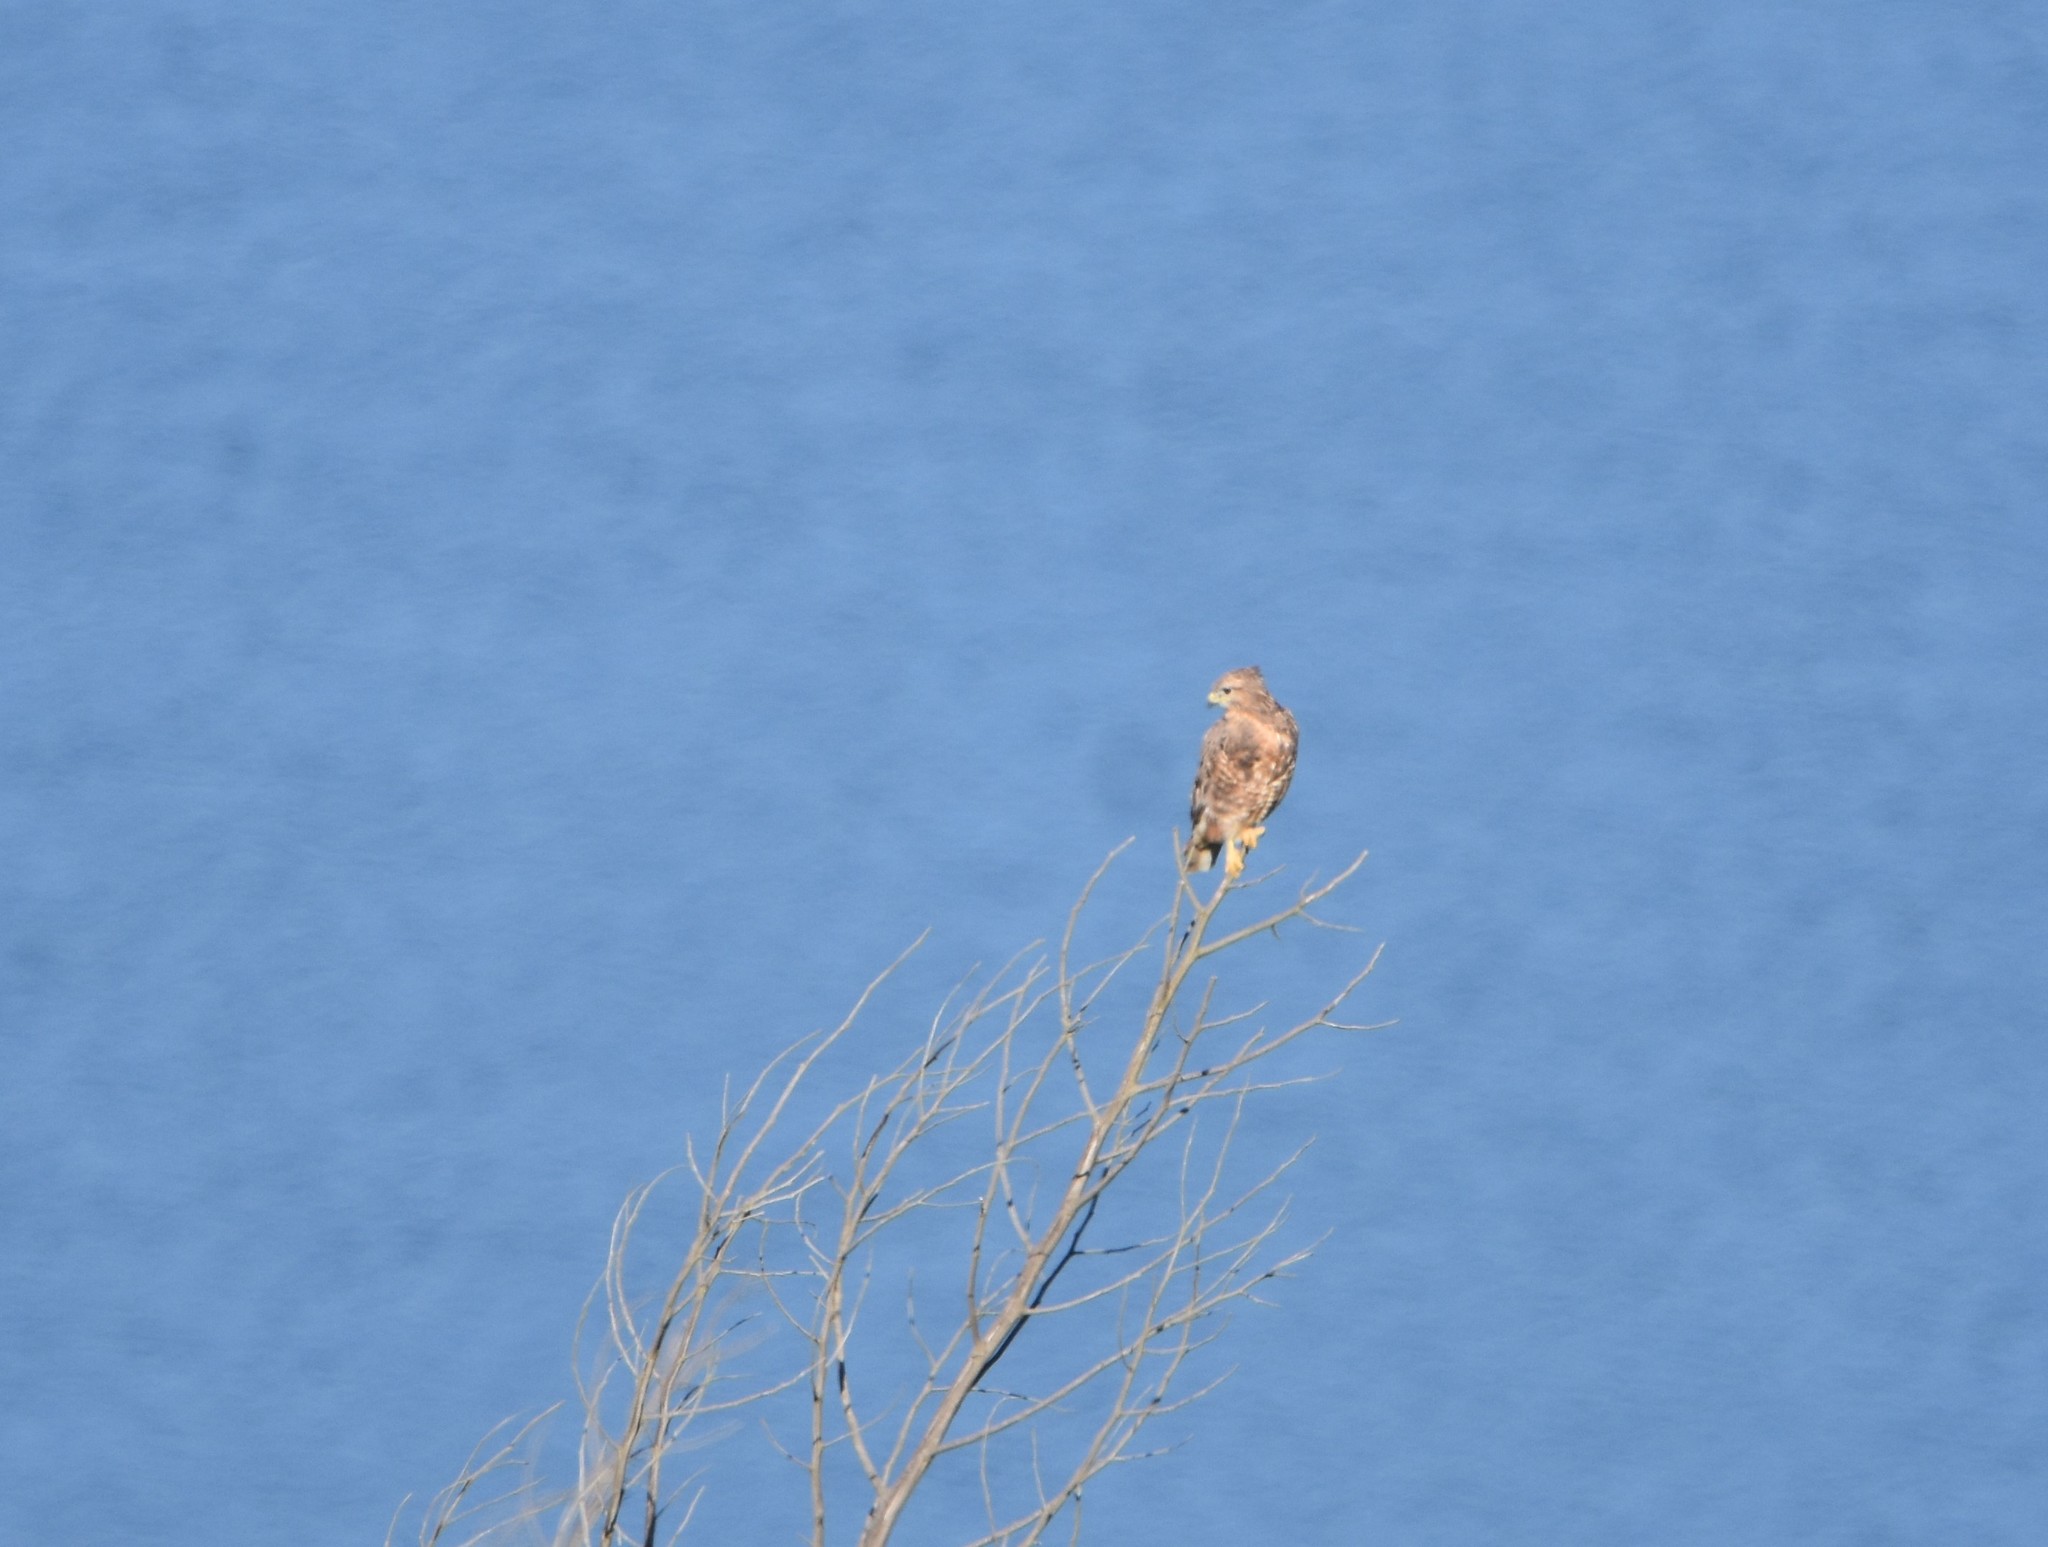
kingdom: Animalia
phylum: Chordata
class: Aves
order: Accipitriformes
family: Accipitridae
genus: Buteo
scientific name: Buteo buteo
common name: Common buzzard
